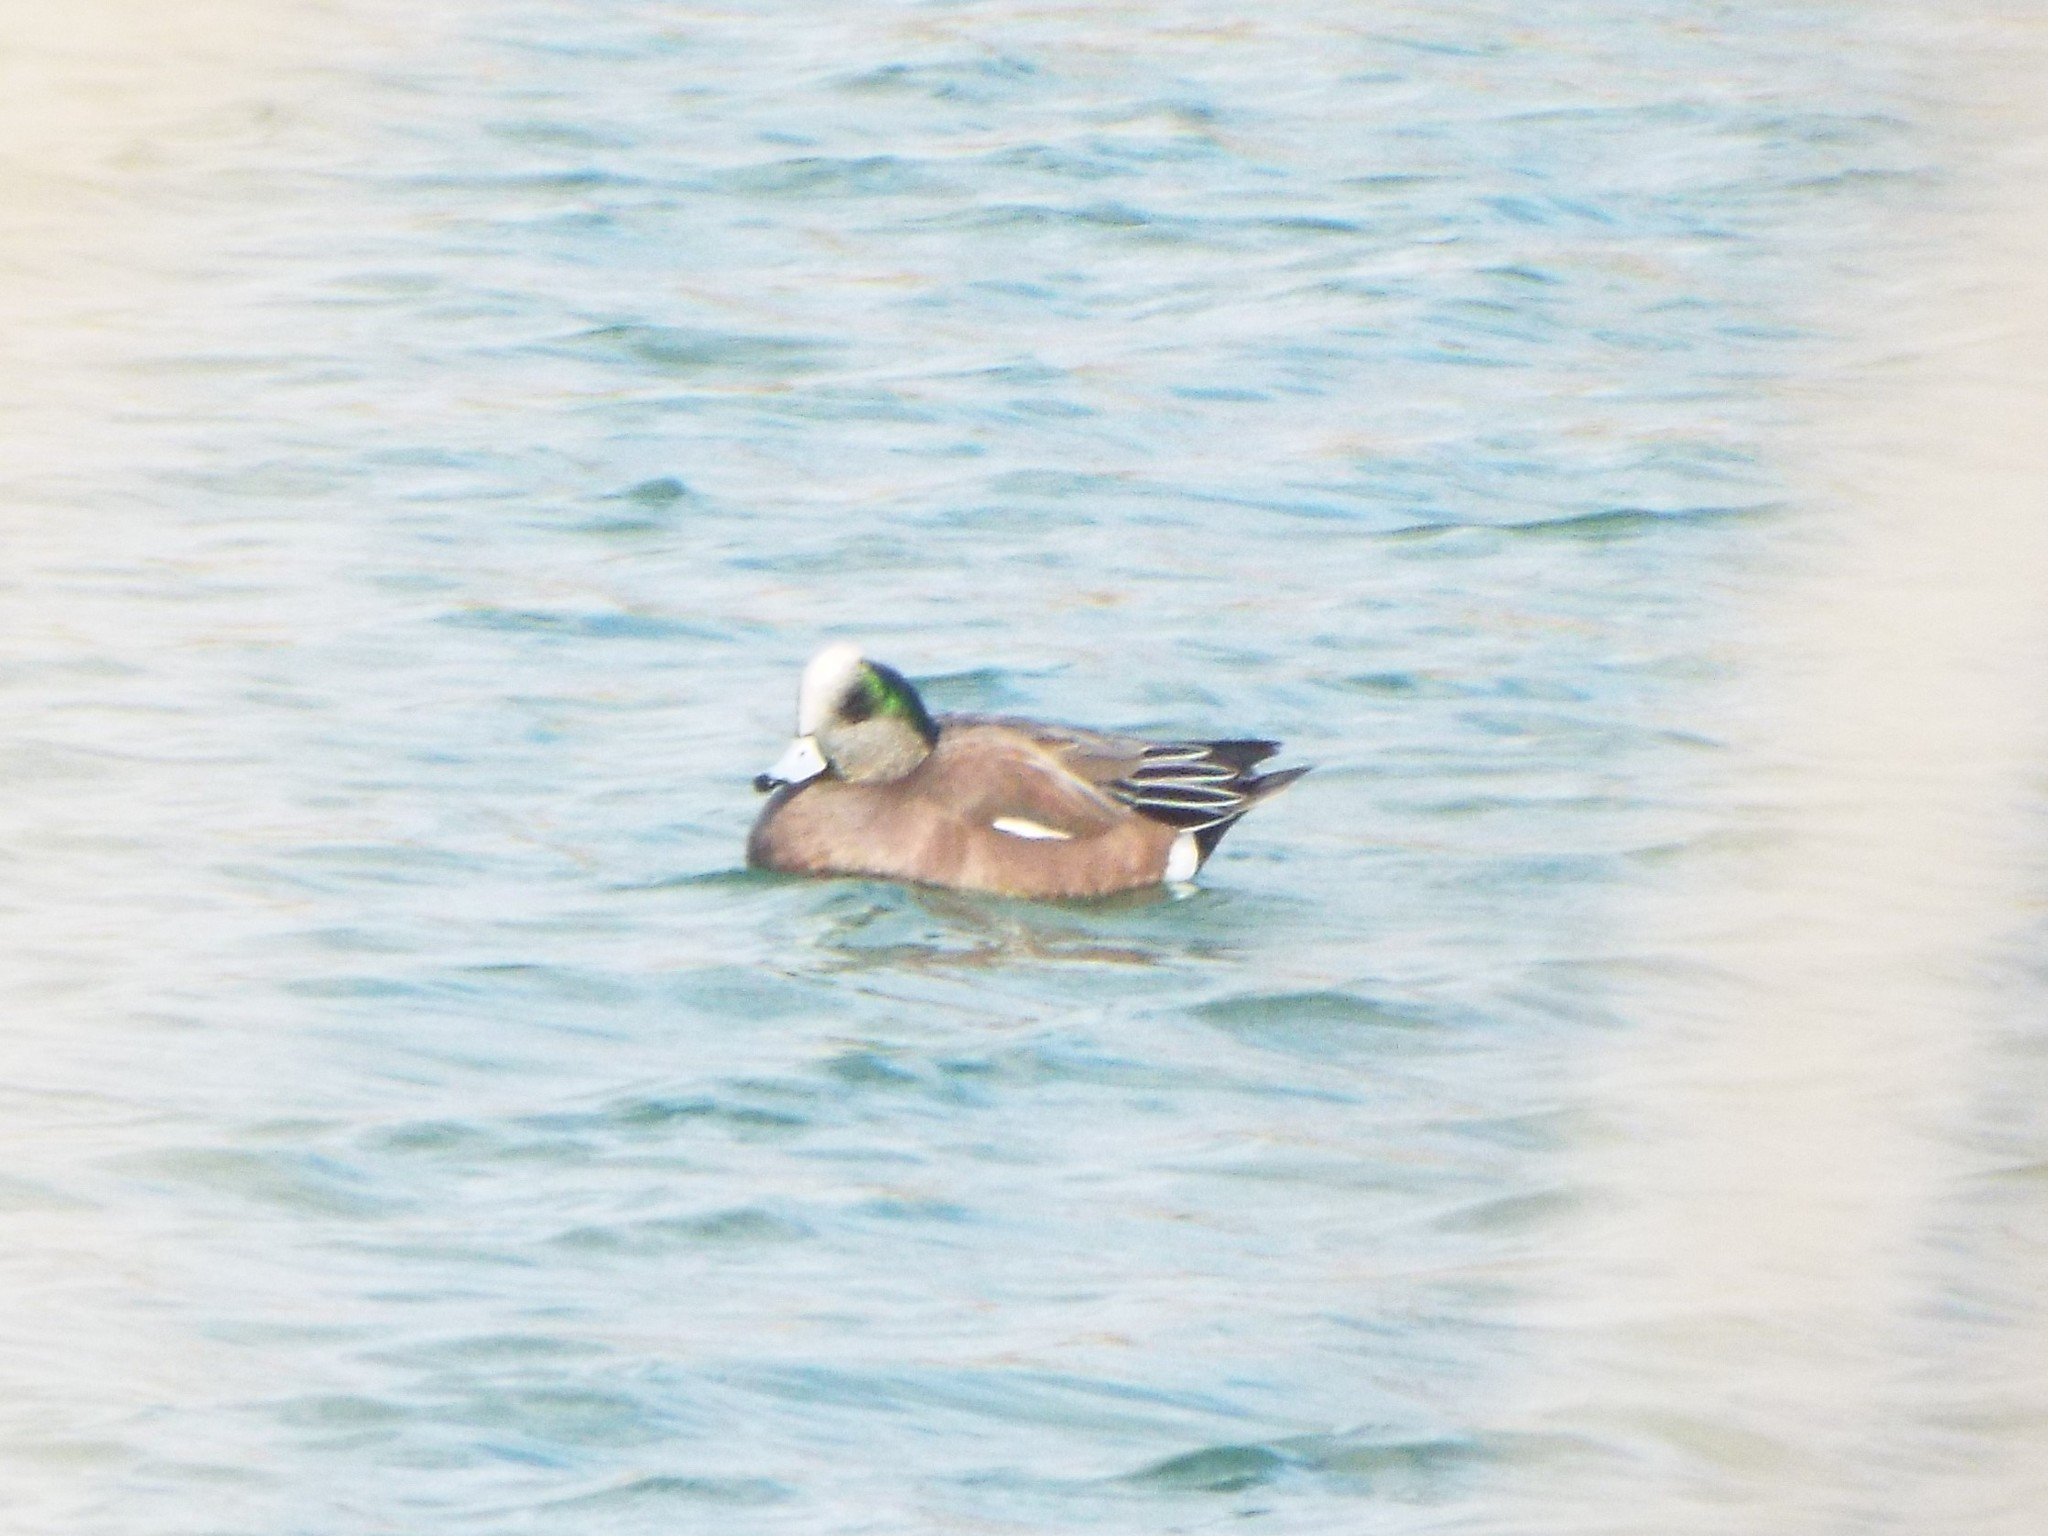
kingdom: Animalia
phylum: Chordata
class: Aves
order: Anseriformes
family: Anatidae
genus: Mareca
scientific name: Mareca americana
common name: American wigeon
